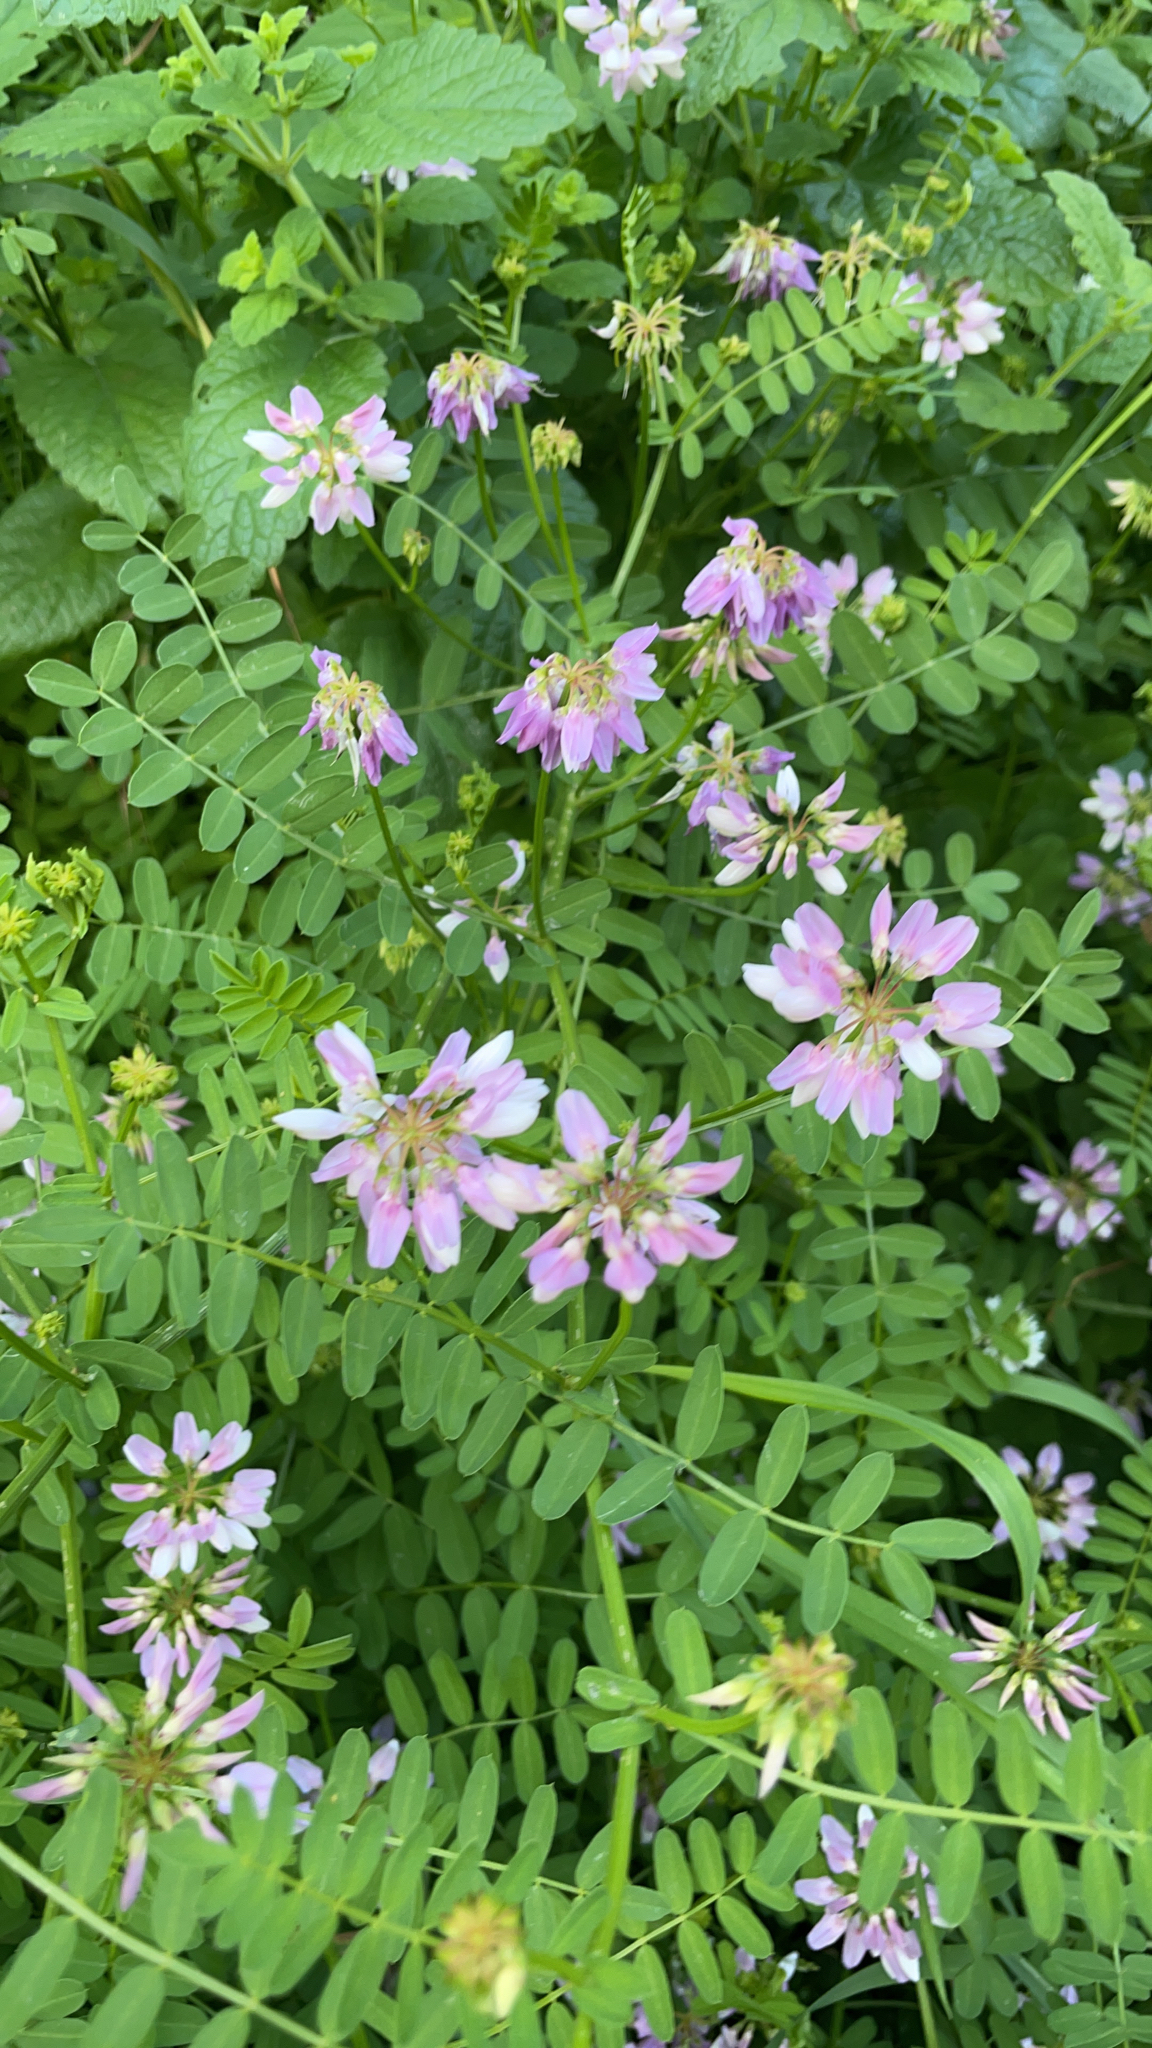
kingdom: Plantae
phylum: Tracheophyta
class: Magnoliopsida
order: Fabales
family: Fabaceae
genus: Coronilla
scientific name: Coronilla varia
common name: Crownvetch
